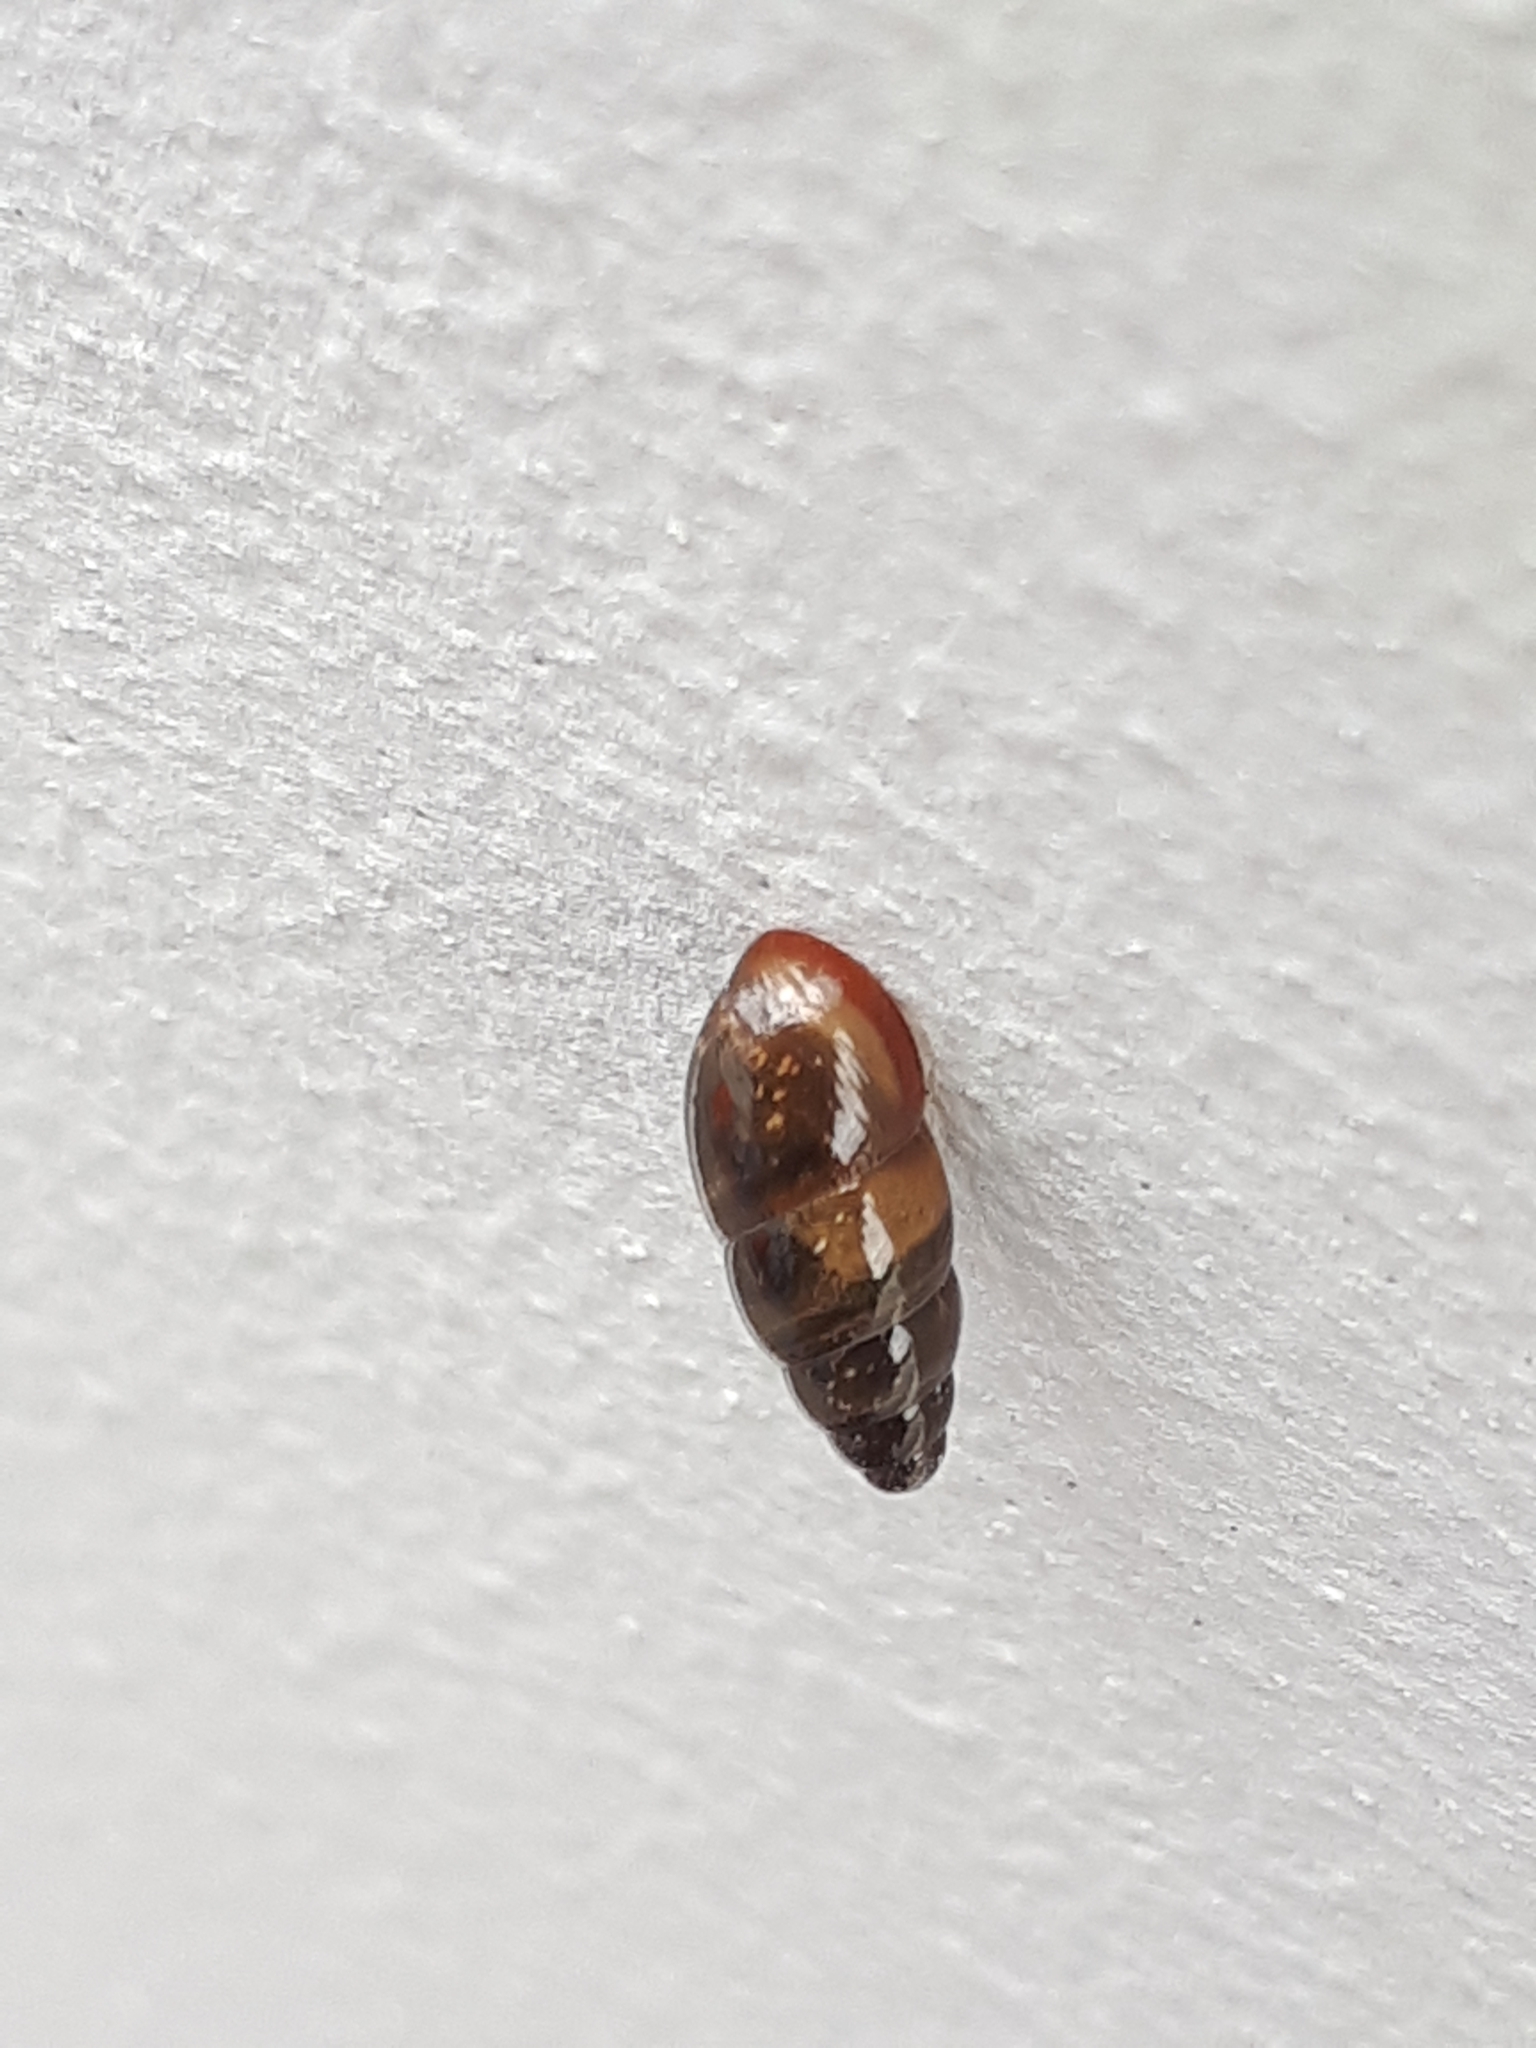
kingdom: Animalia
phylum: Mollusca
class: Gastropoda
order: Stylommatophora
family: Cochlicopidae
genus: Cochlicopa
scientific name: Cochlicopa lubrica
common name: Glossy pillar snail
